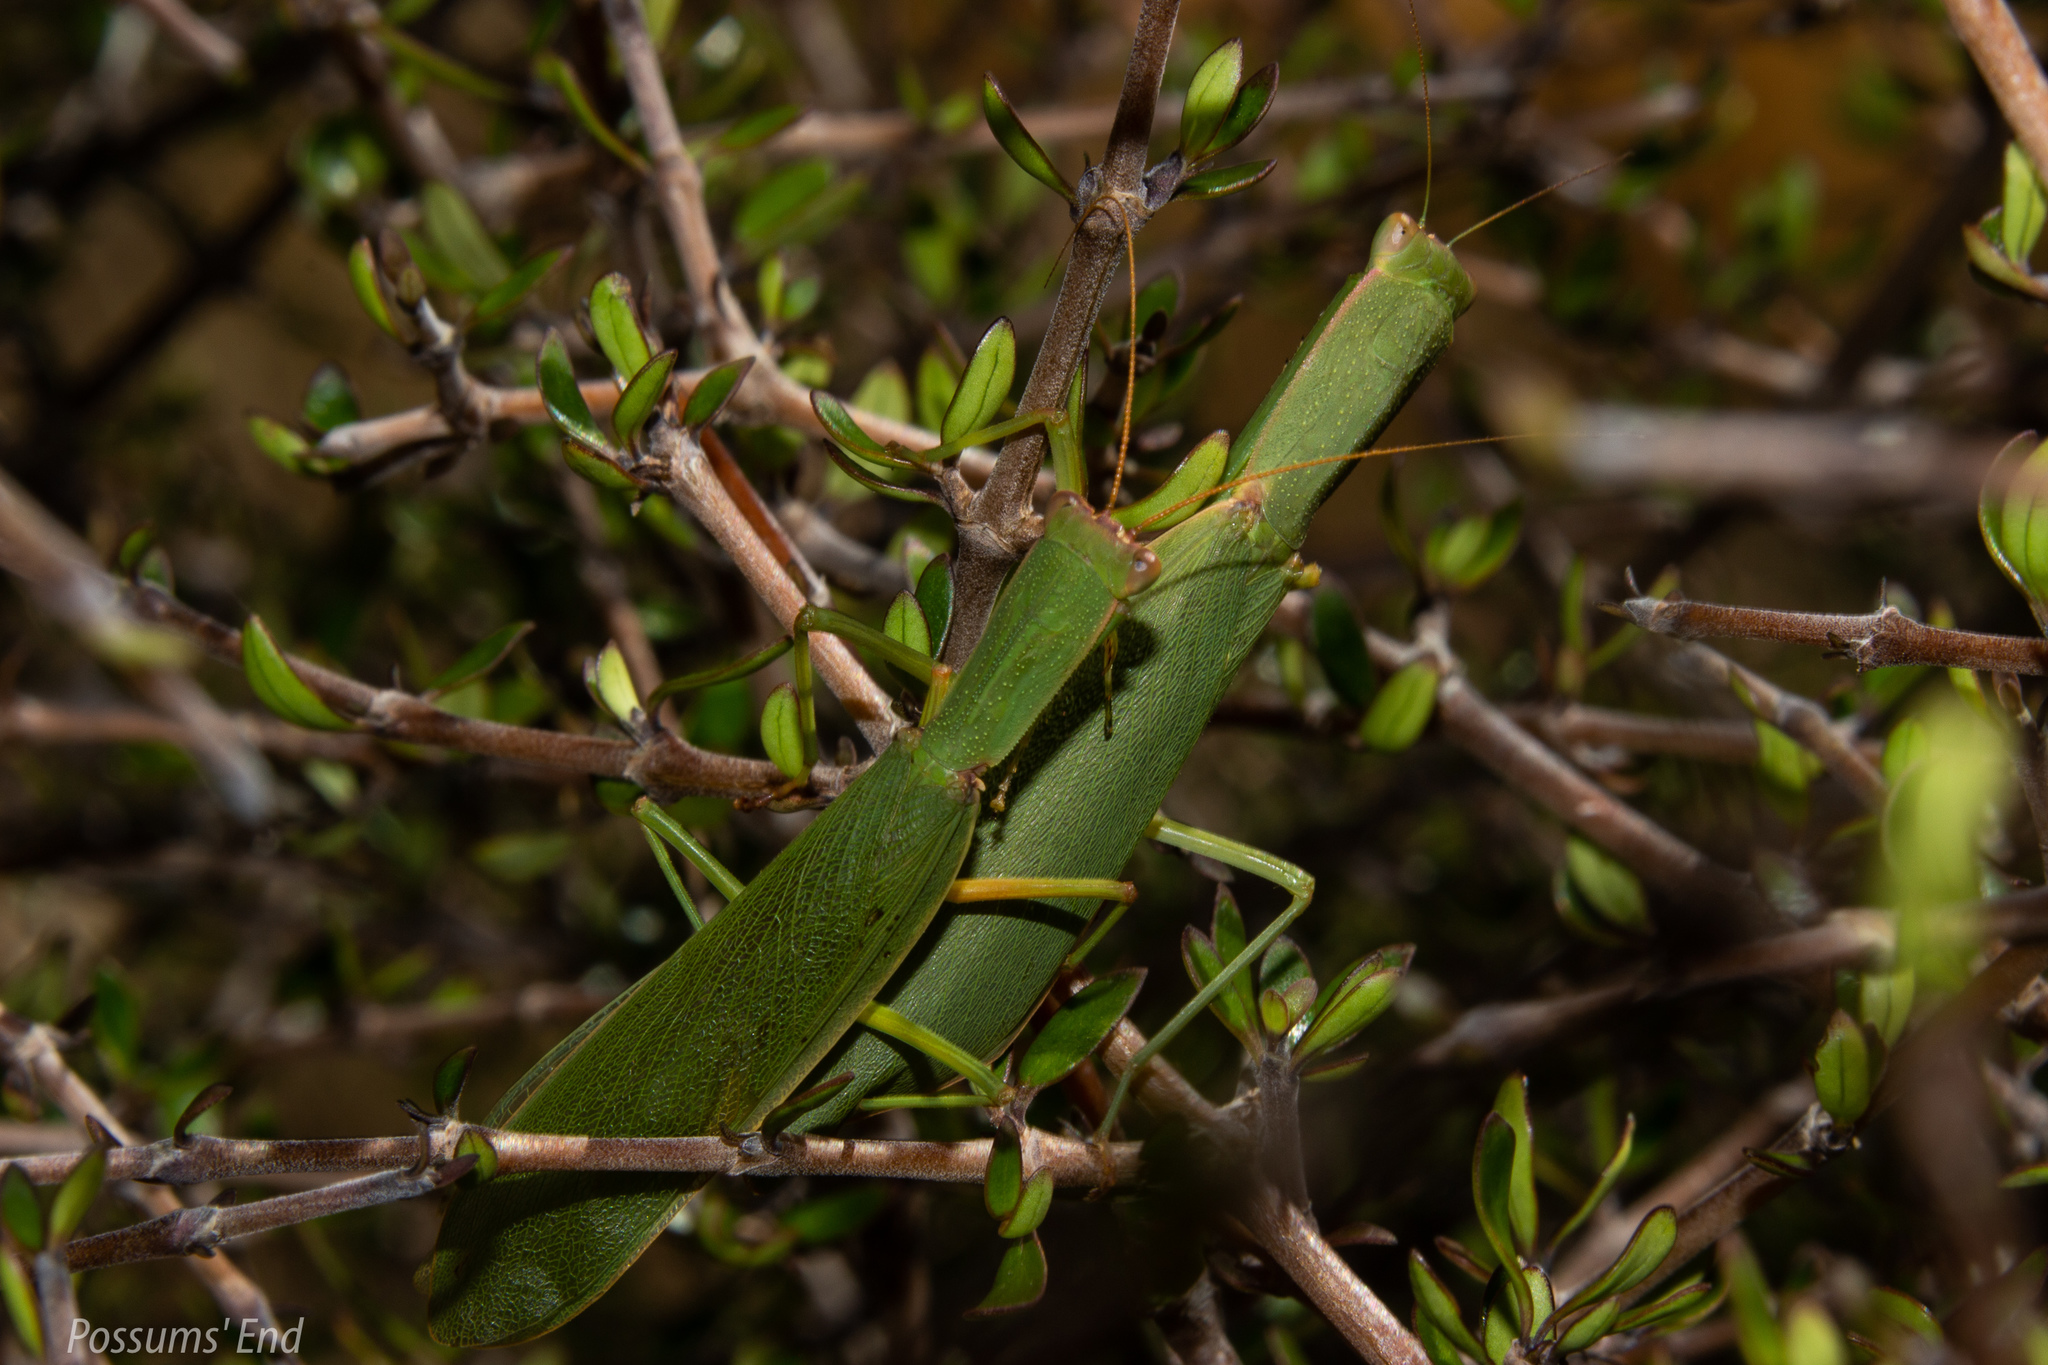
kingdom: Animalia
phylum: Arthropoda
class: Insecta
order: Mantodea
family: Mantidae
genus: Orthodera
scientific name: Orthodera novaezealandiae
